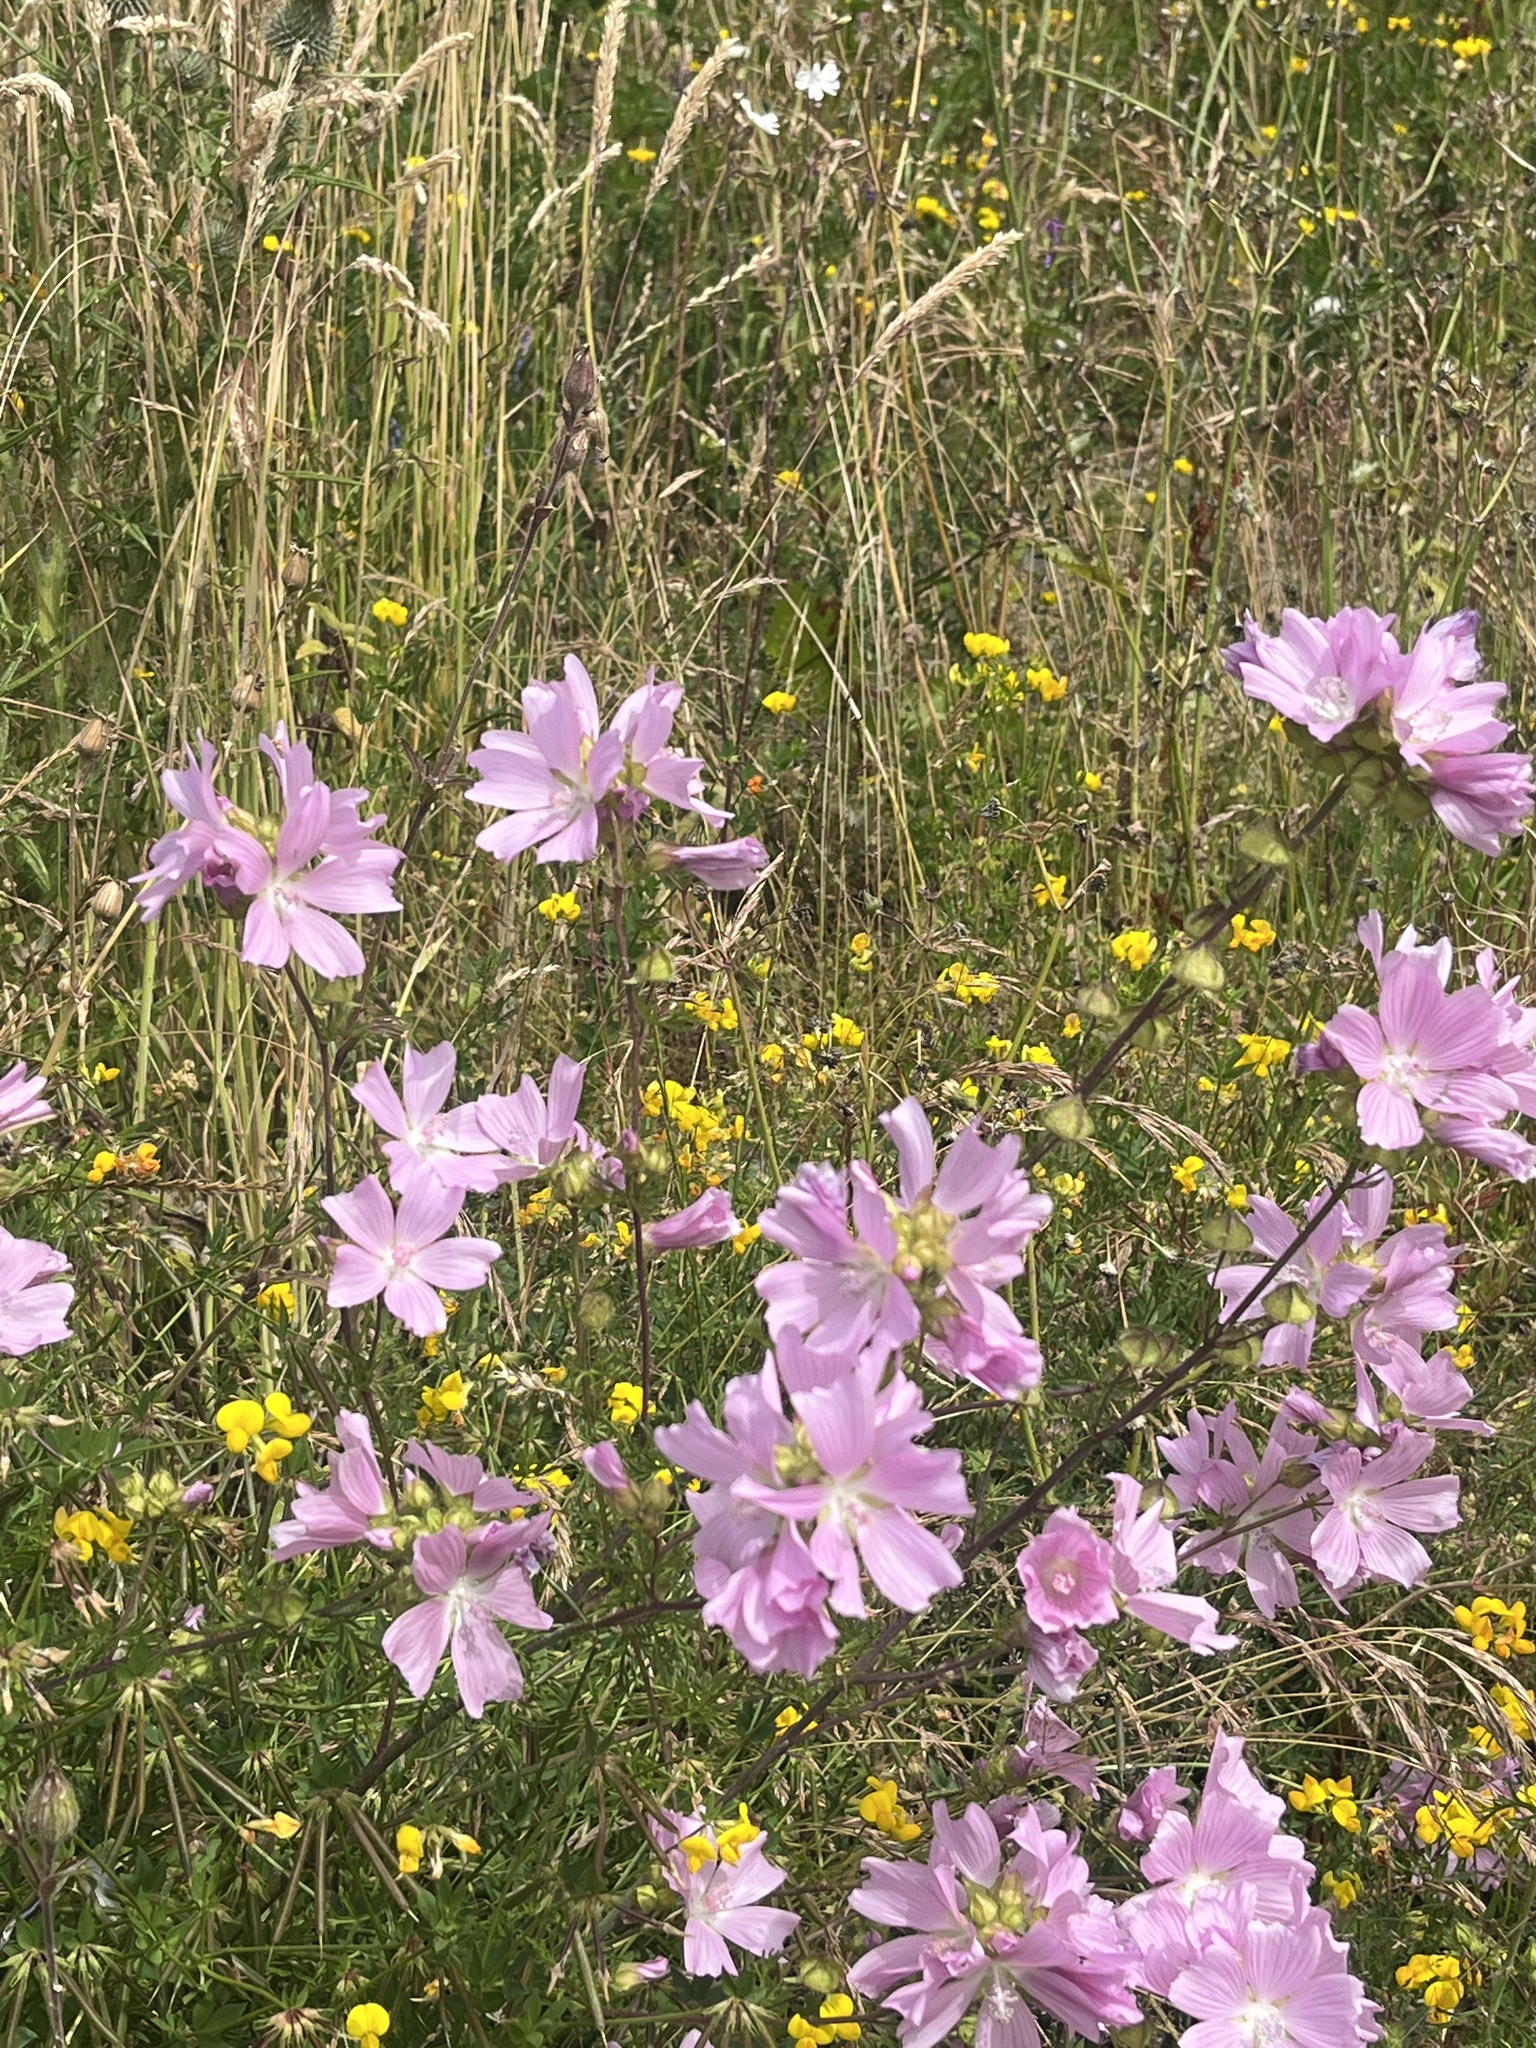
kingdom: Plantae
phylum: Tracheophyta
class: Magnoliopsida
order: Malvales
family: Malvaceae
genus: Malva
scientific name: Malva moschata
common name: Musk mallow
